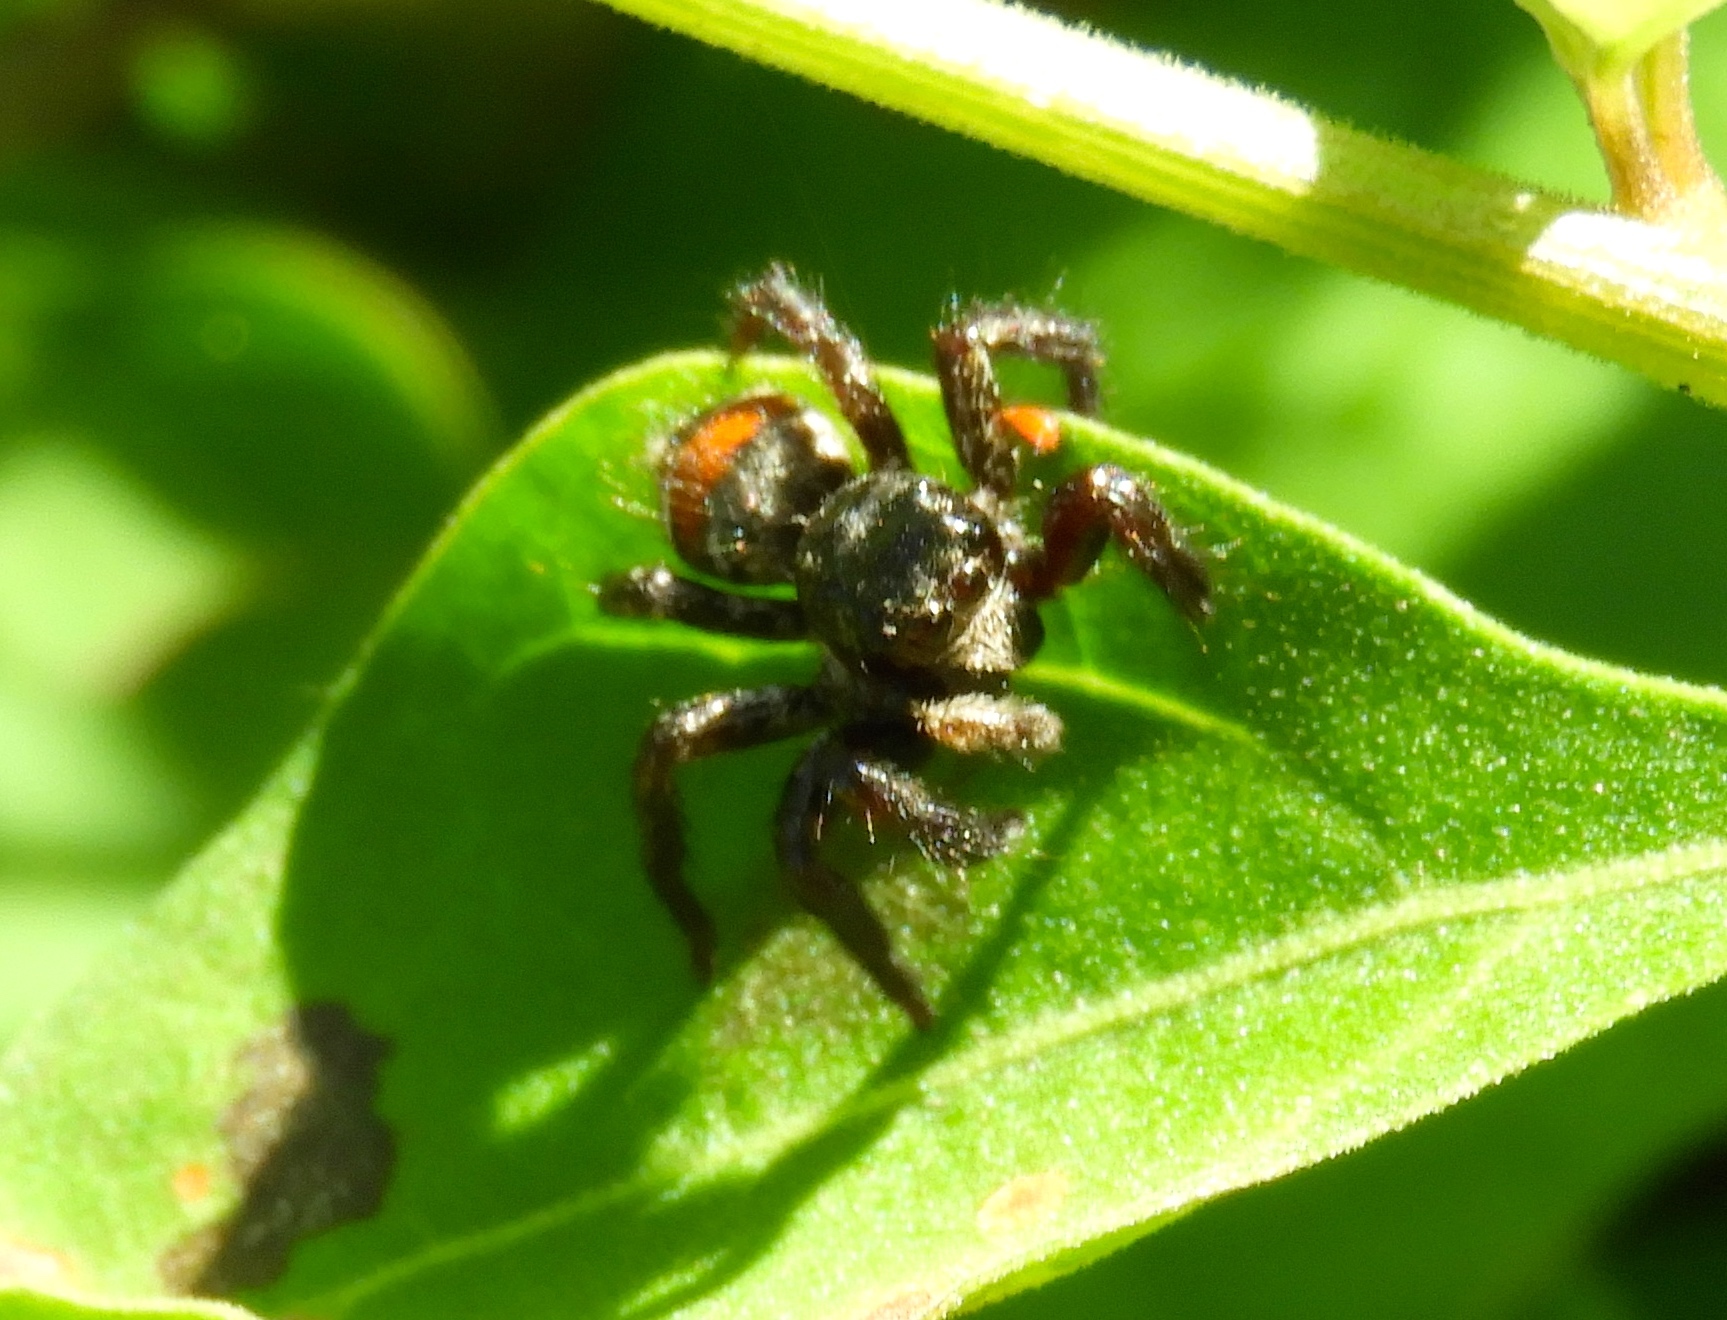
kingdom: Animalia
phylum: Arthropoda
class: Arachnida
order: Araneae
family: Salticidae
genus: Corythalia
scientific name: Corythalia
